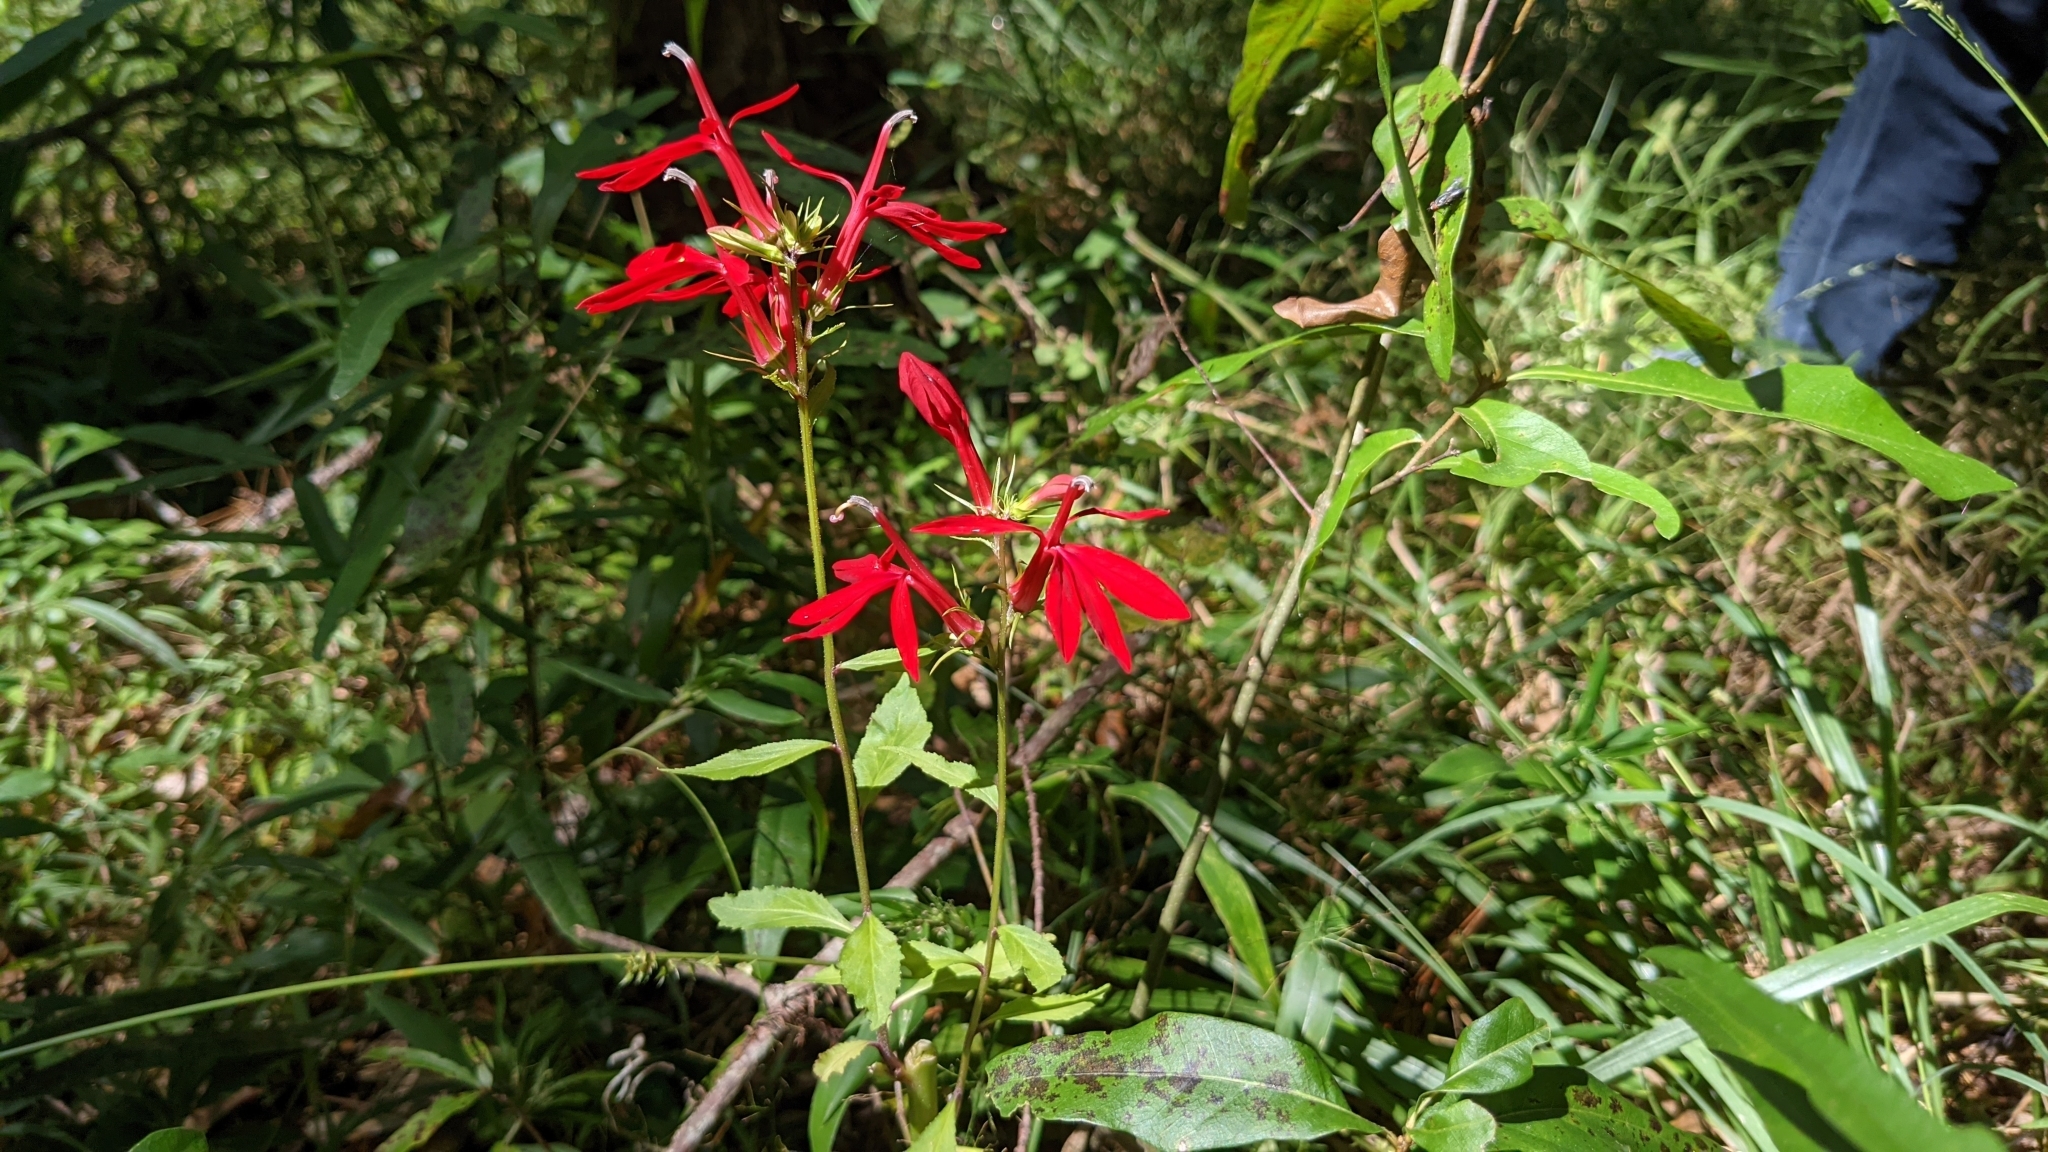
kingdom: Plantae
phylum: Tracheophyta
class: Magnoliopsida
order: Asterales
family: Campanulaceae
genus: Lobelia
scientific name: Lobelia cardinalis
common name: Cardinal flower
